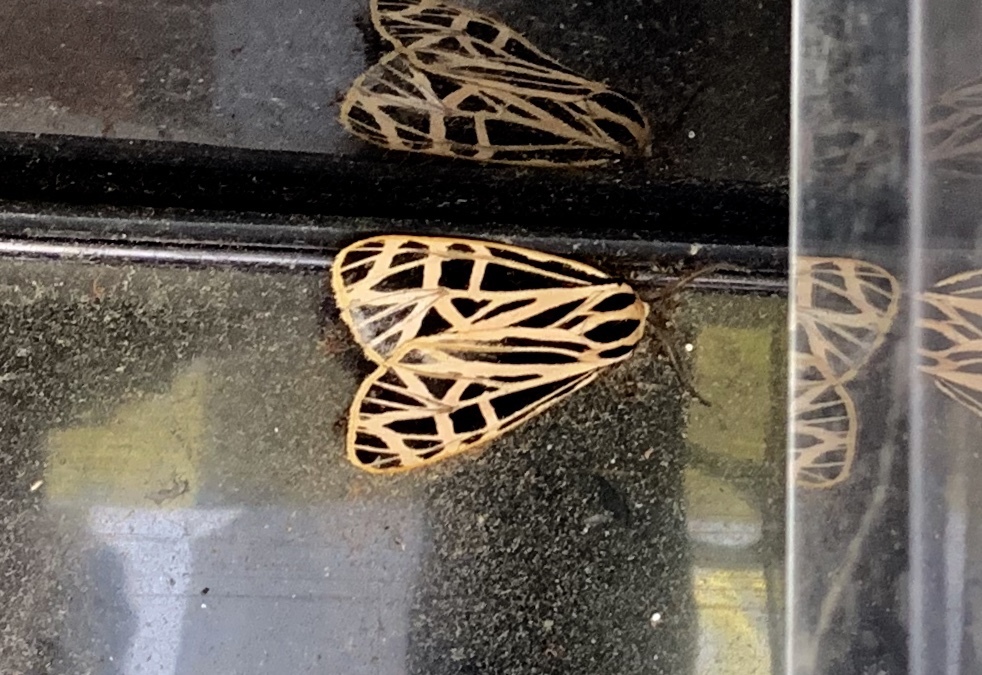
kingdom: Animalia
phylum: Arthropoda
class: Insecta
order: Lepidoptera
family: Erebidae
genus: Grammia
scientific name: Grammia virgo
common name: Virgin tiger moth
